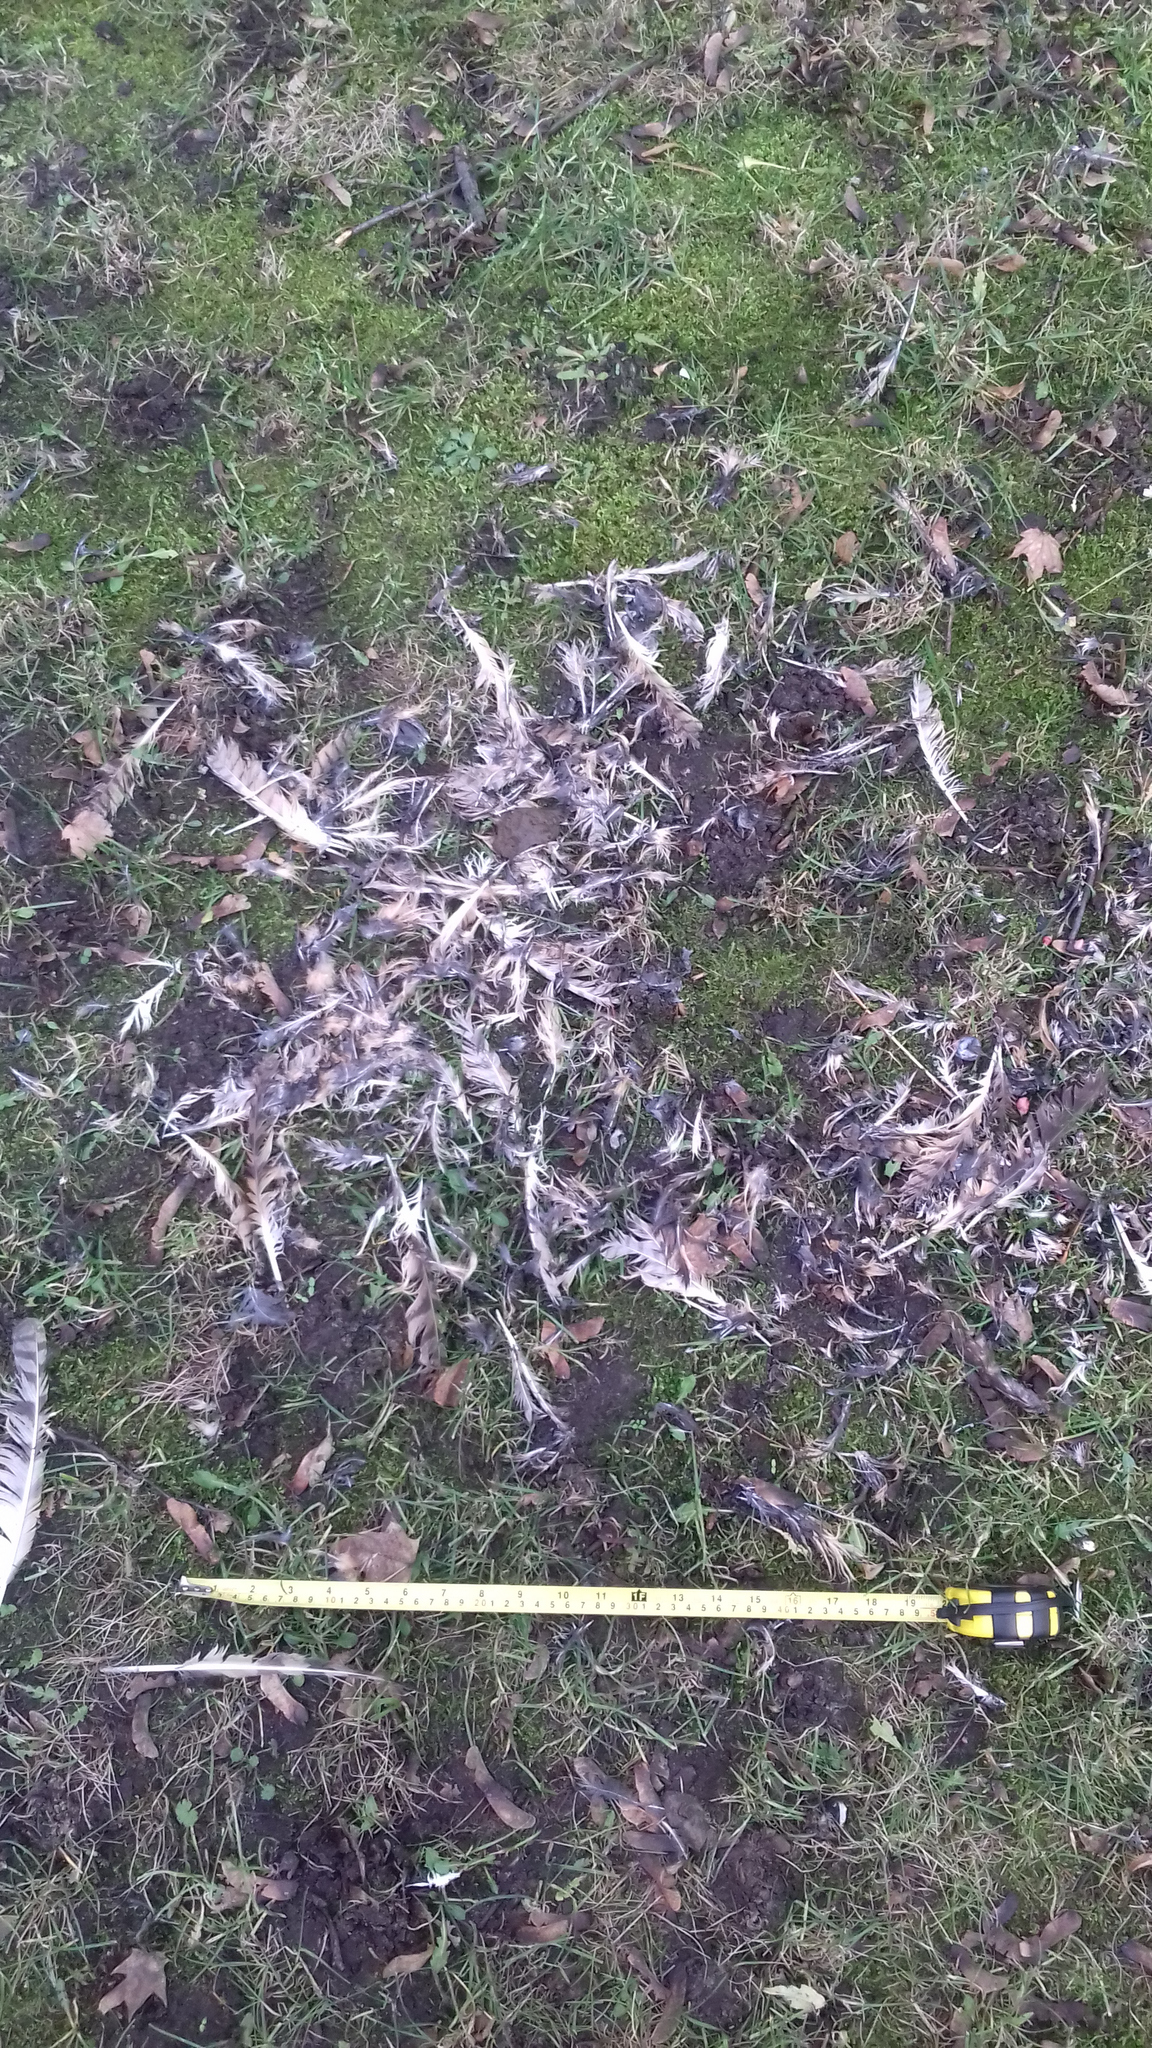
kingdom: Animalia
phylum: Chordata
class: Aves
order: Strigiformes
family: Strigidae
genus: Asio
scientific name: Asio otus
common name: Long-eared owl
